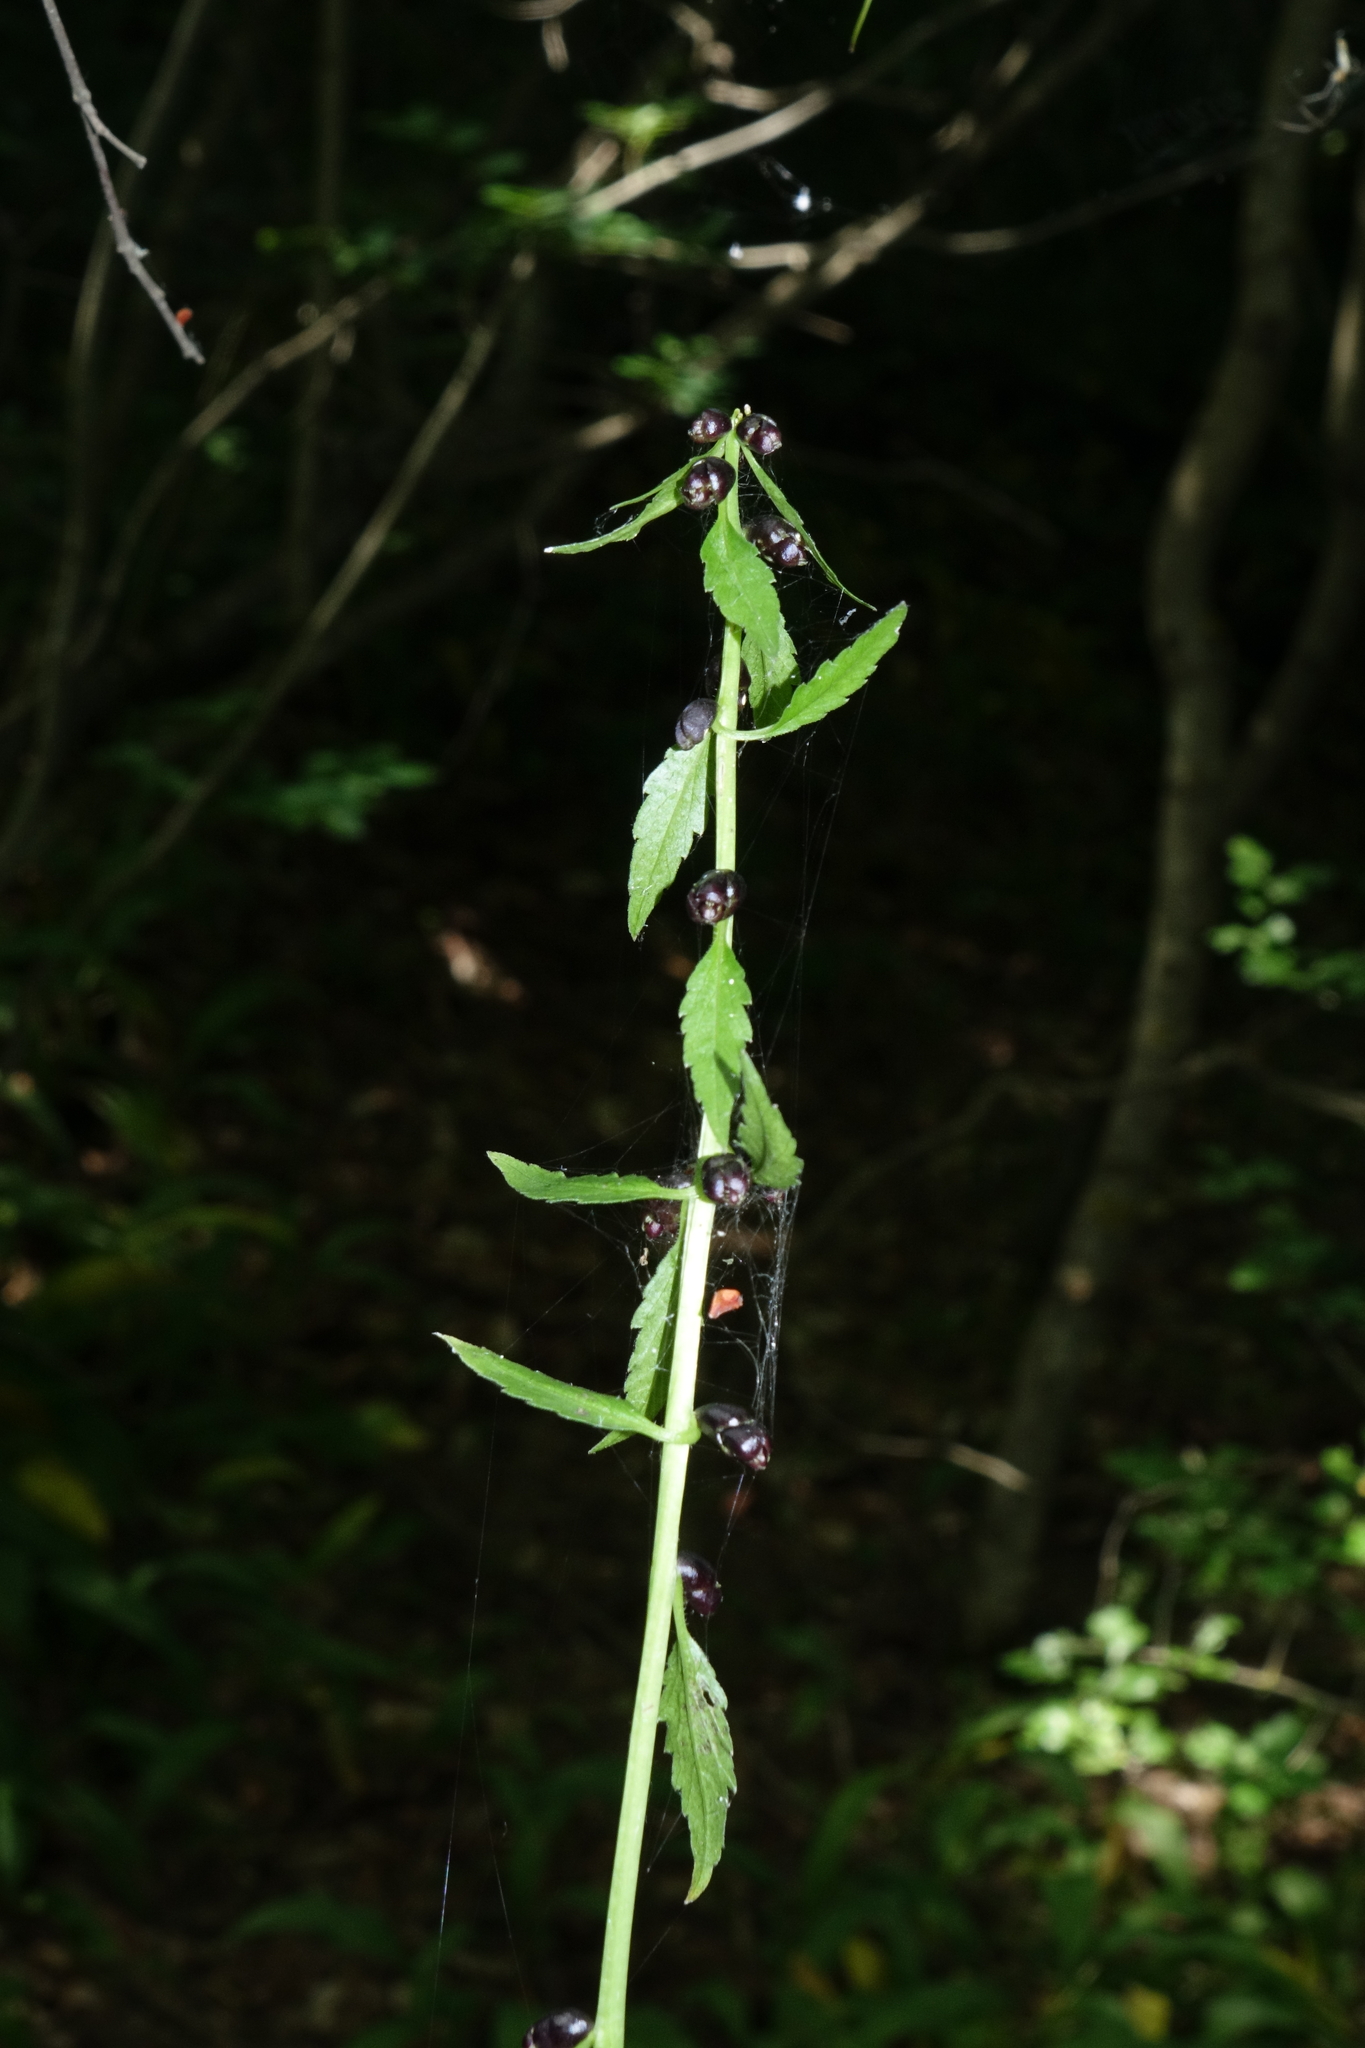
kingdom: Plantae
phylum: Tracheophyta
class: Magnoliopsida
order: Brassicales
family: Brassicaceae
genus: Cardamine
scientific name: Cardamine bulbifera
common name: Coralroot bittercress
